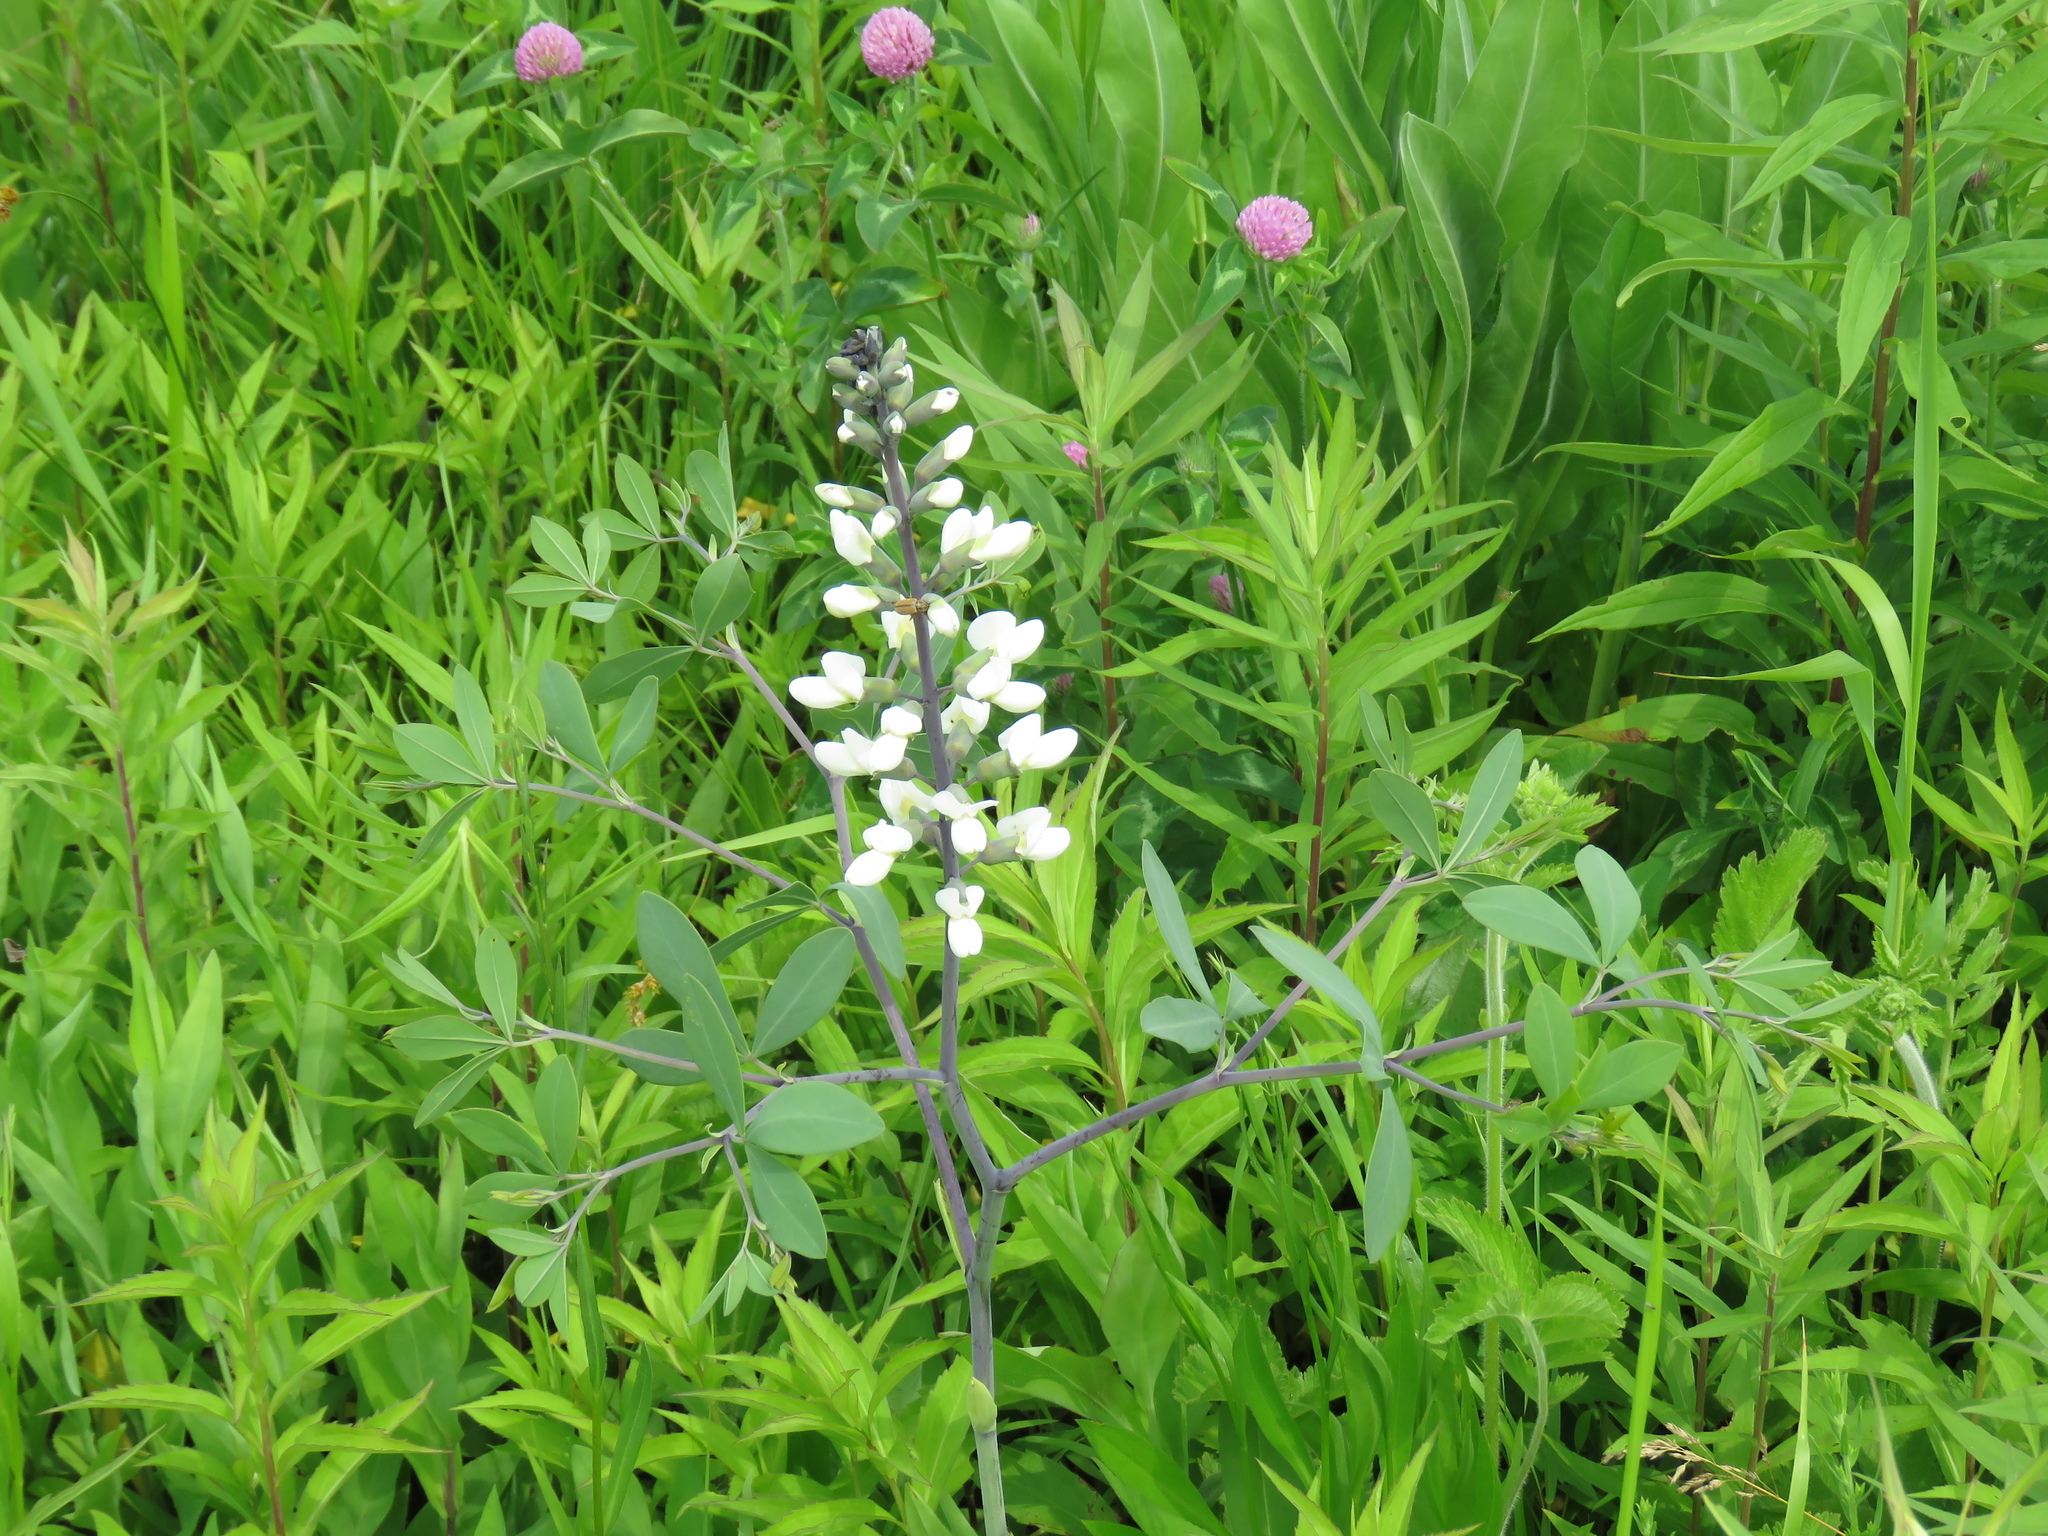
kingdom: Plantae
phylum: Tracheophyta
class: Magnoliopsida
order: Fabales
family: Fabaceae
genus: Baptisia
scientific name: Baptisia alba
